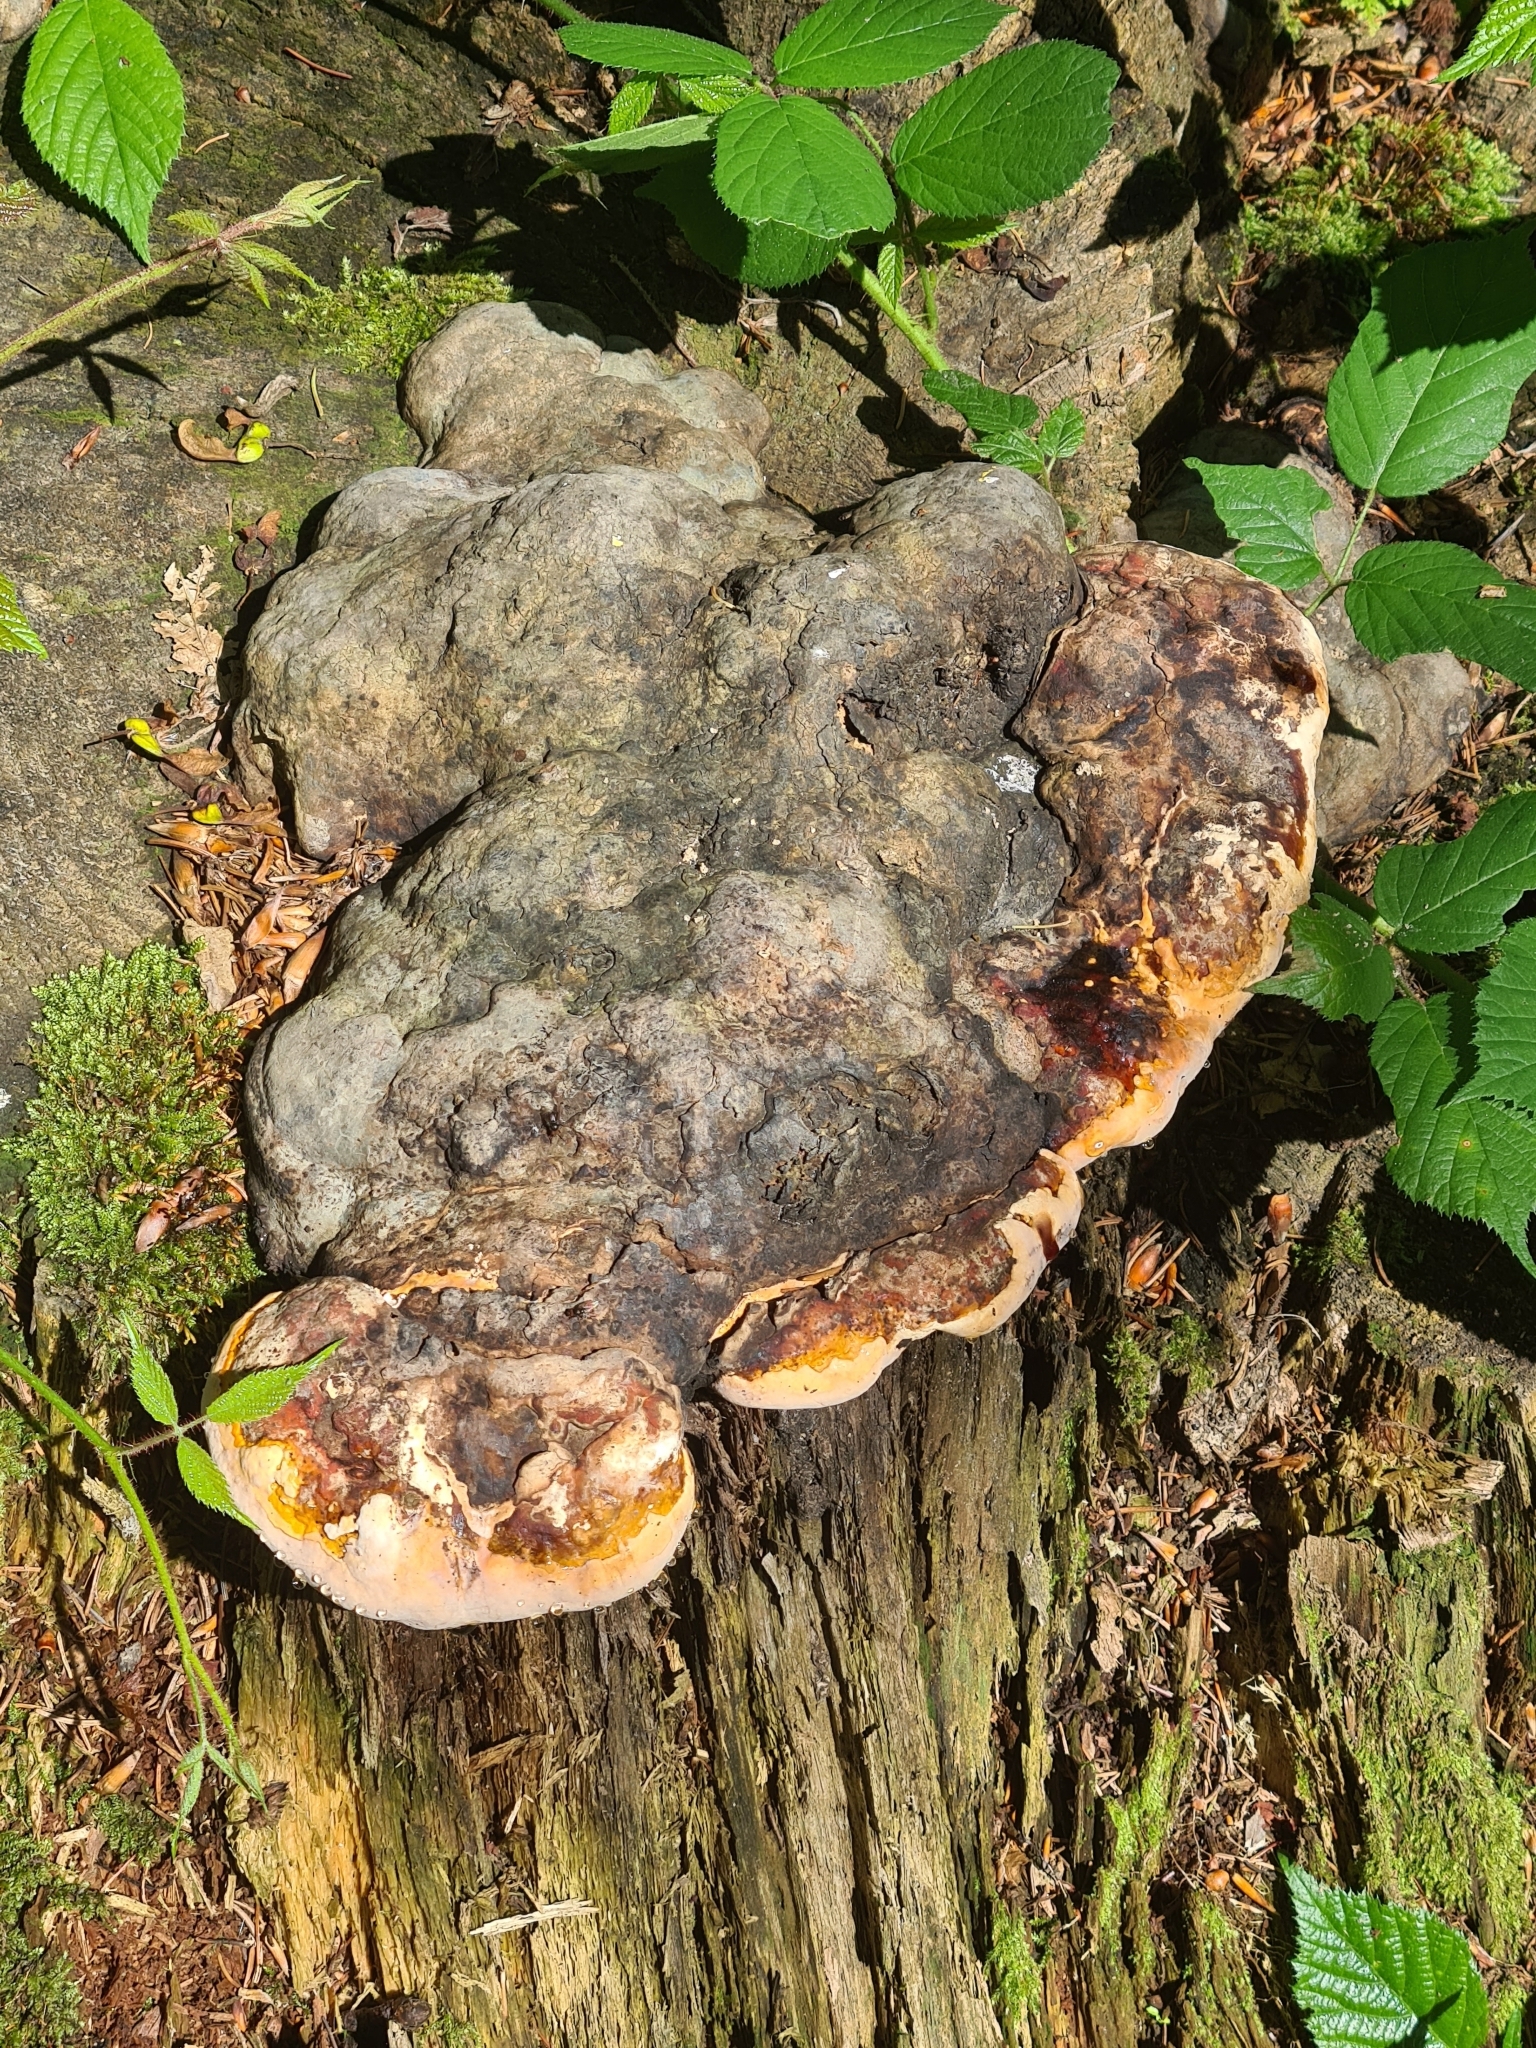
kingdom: Fungi
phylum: Basidiomycota
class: Agaricomycetes
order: Polyporales
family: Fomitopsidaceae
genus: Fomitopsis
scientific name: Fomitopsis pinicola
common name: Red-belted bracket
